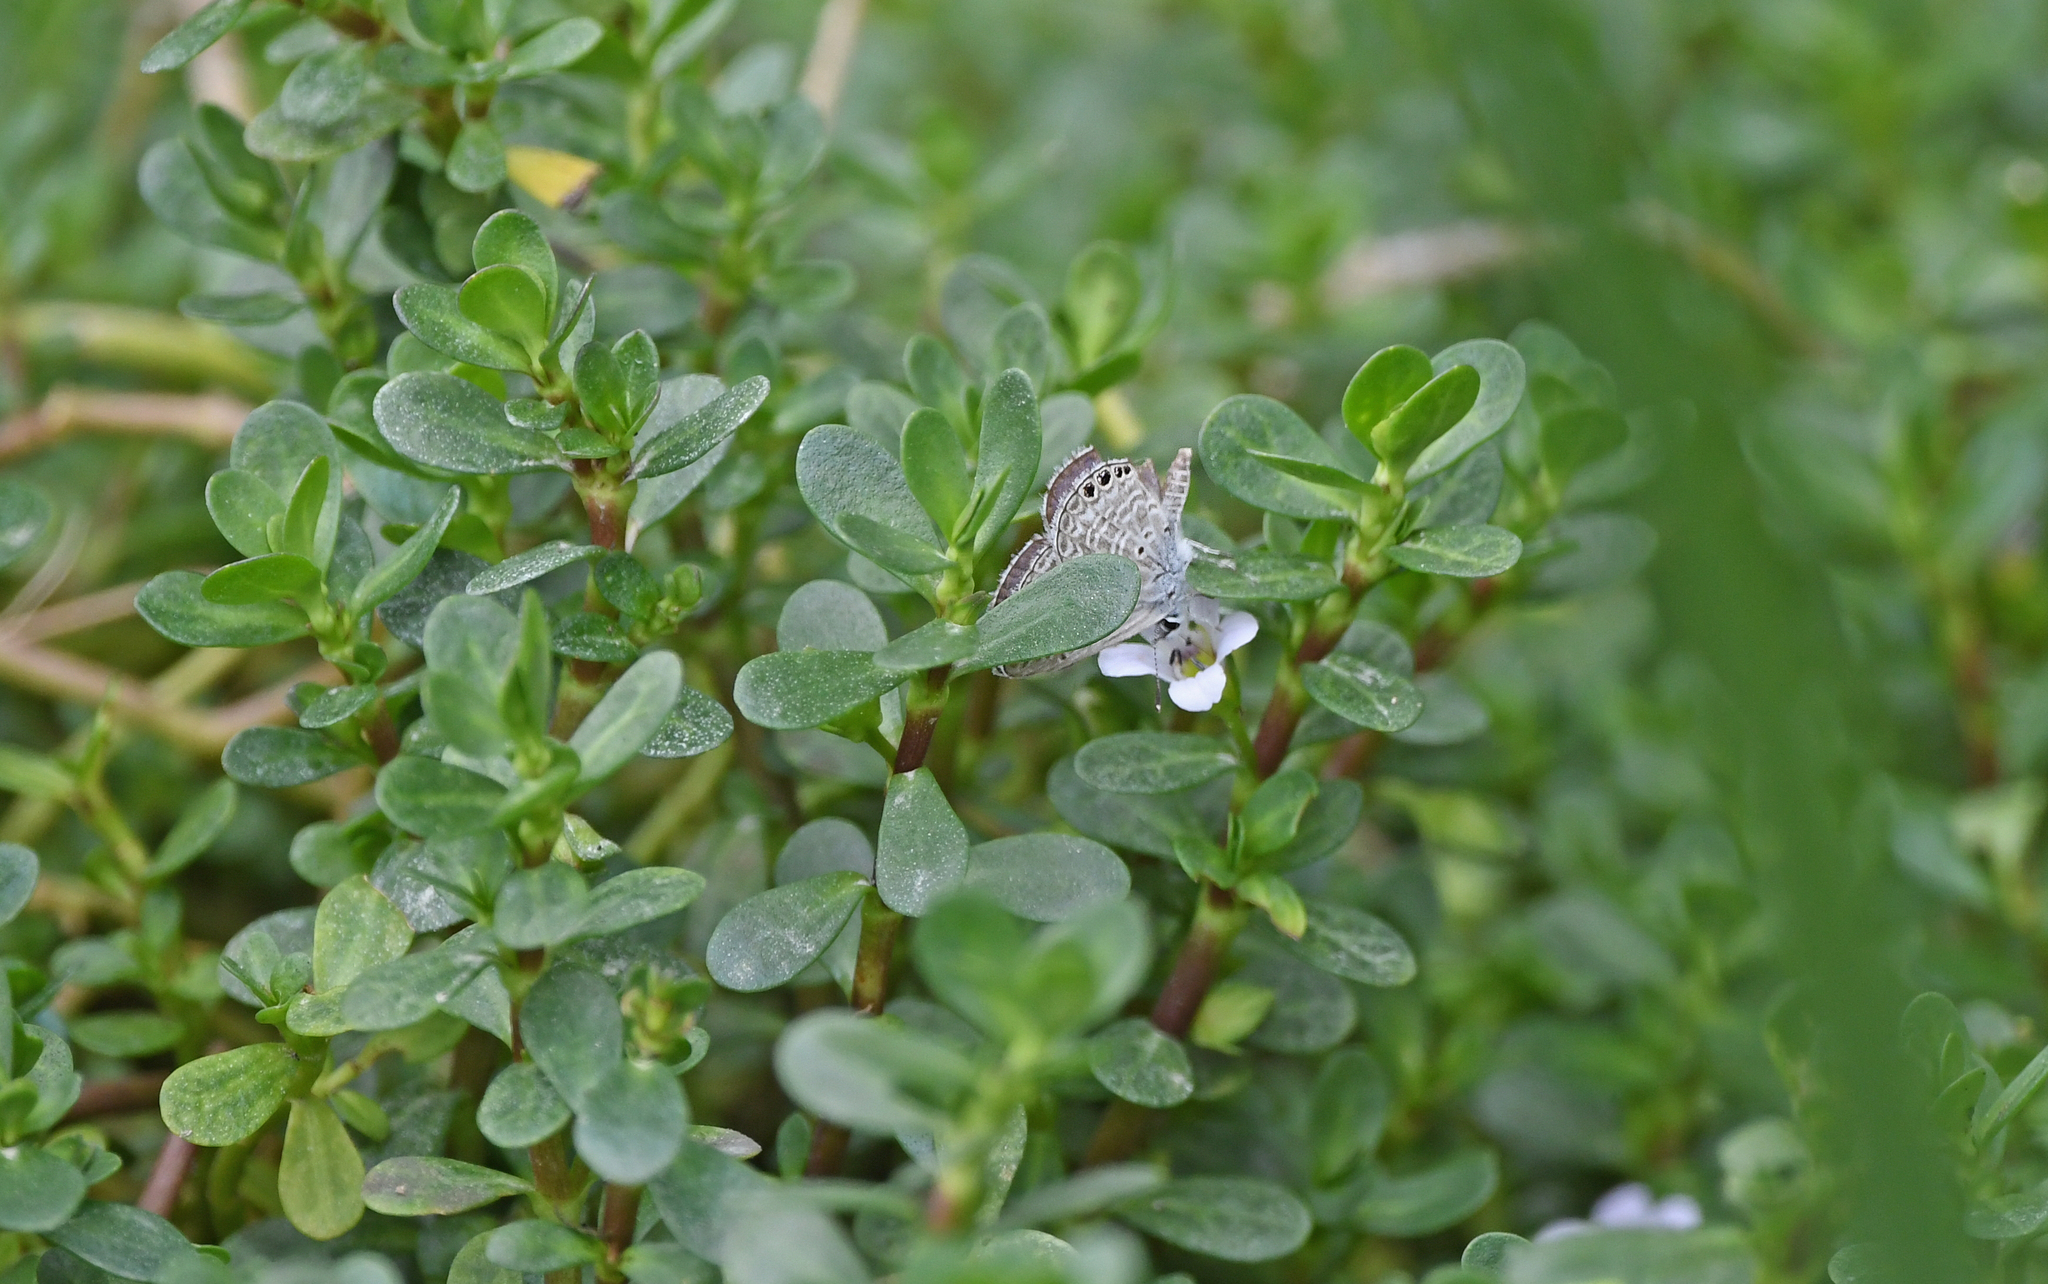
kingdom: Animalia
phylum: Arthropoda
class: Insecta
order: Lepidoptera
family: Lycaenidae
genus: Hemiargus
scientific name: Hemiargus ramon
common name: Ramon blue
